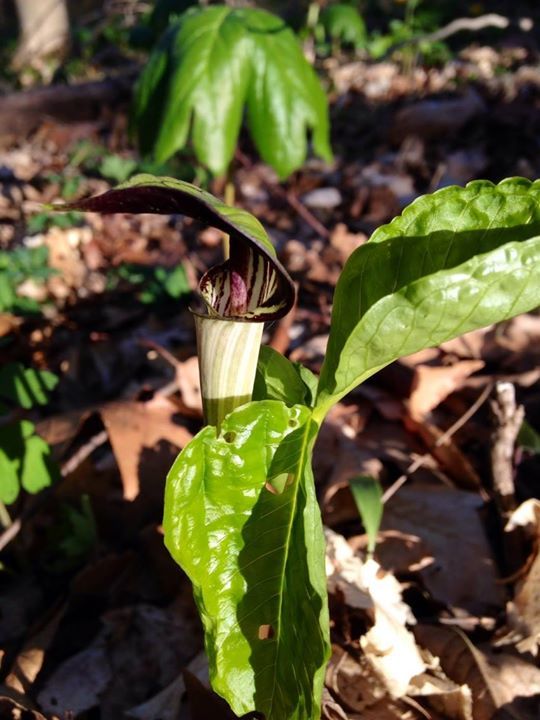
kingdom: Plantae
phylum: Tracheophyta
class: Liliopsida
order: Alismatales
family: Araceae
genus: Arisaema
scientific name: Arisaema triphyllum
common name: Jack-in-the-pulpit
